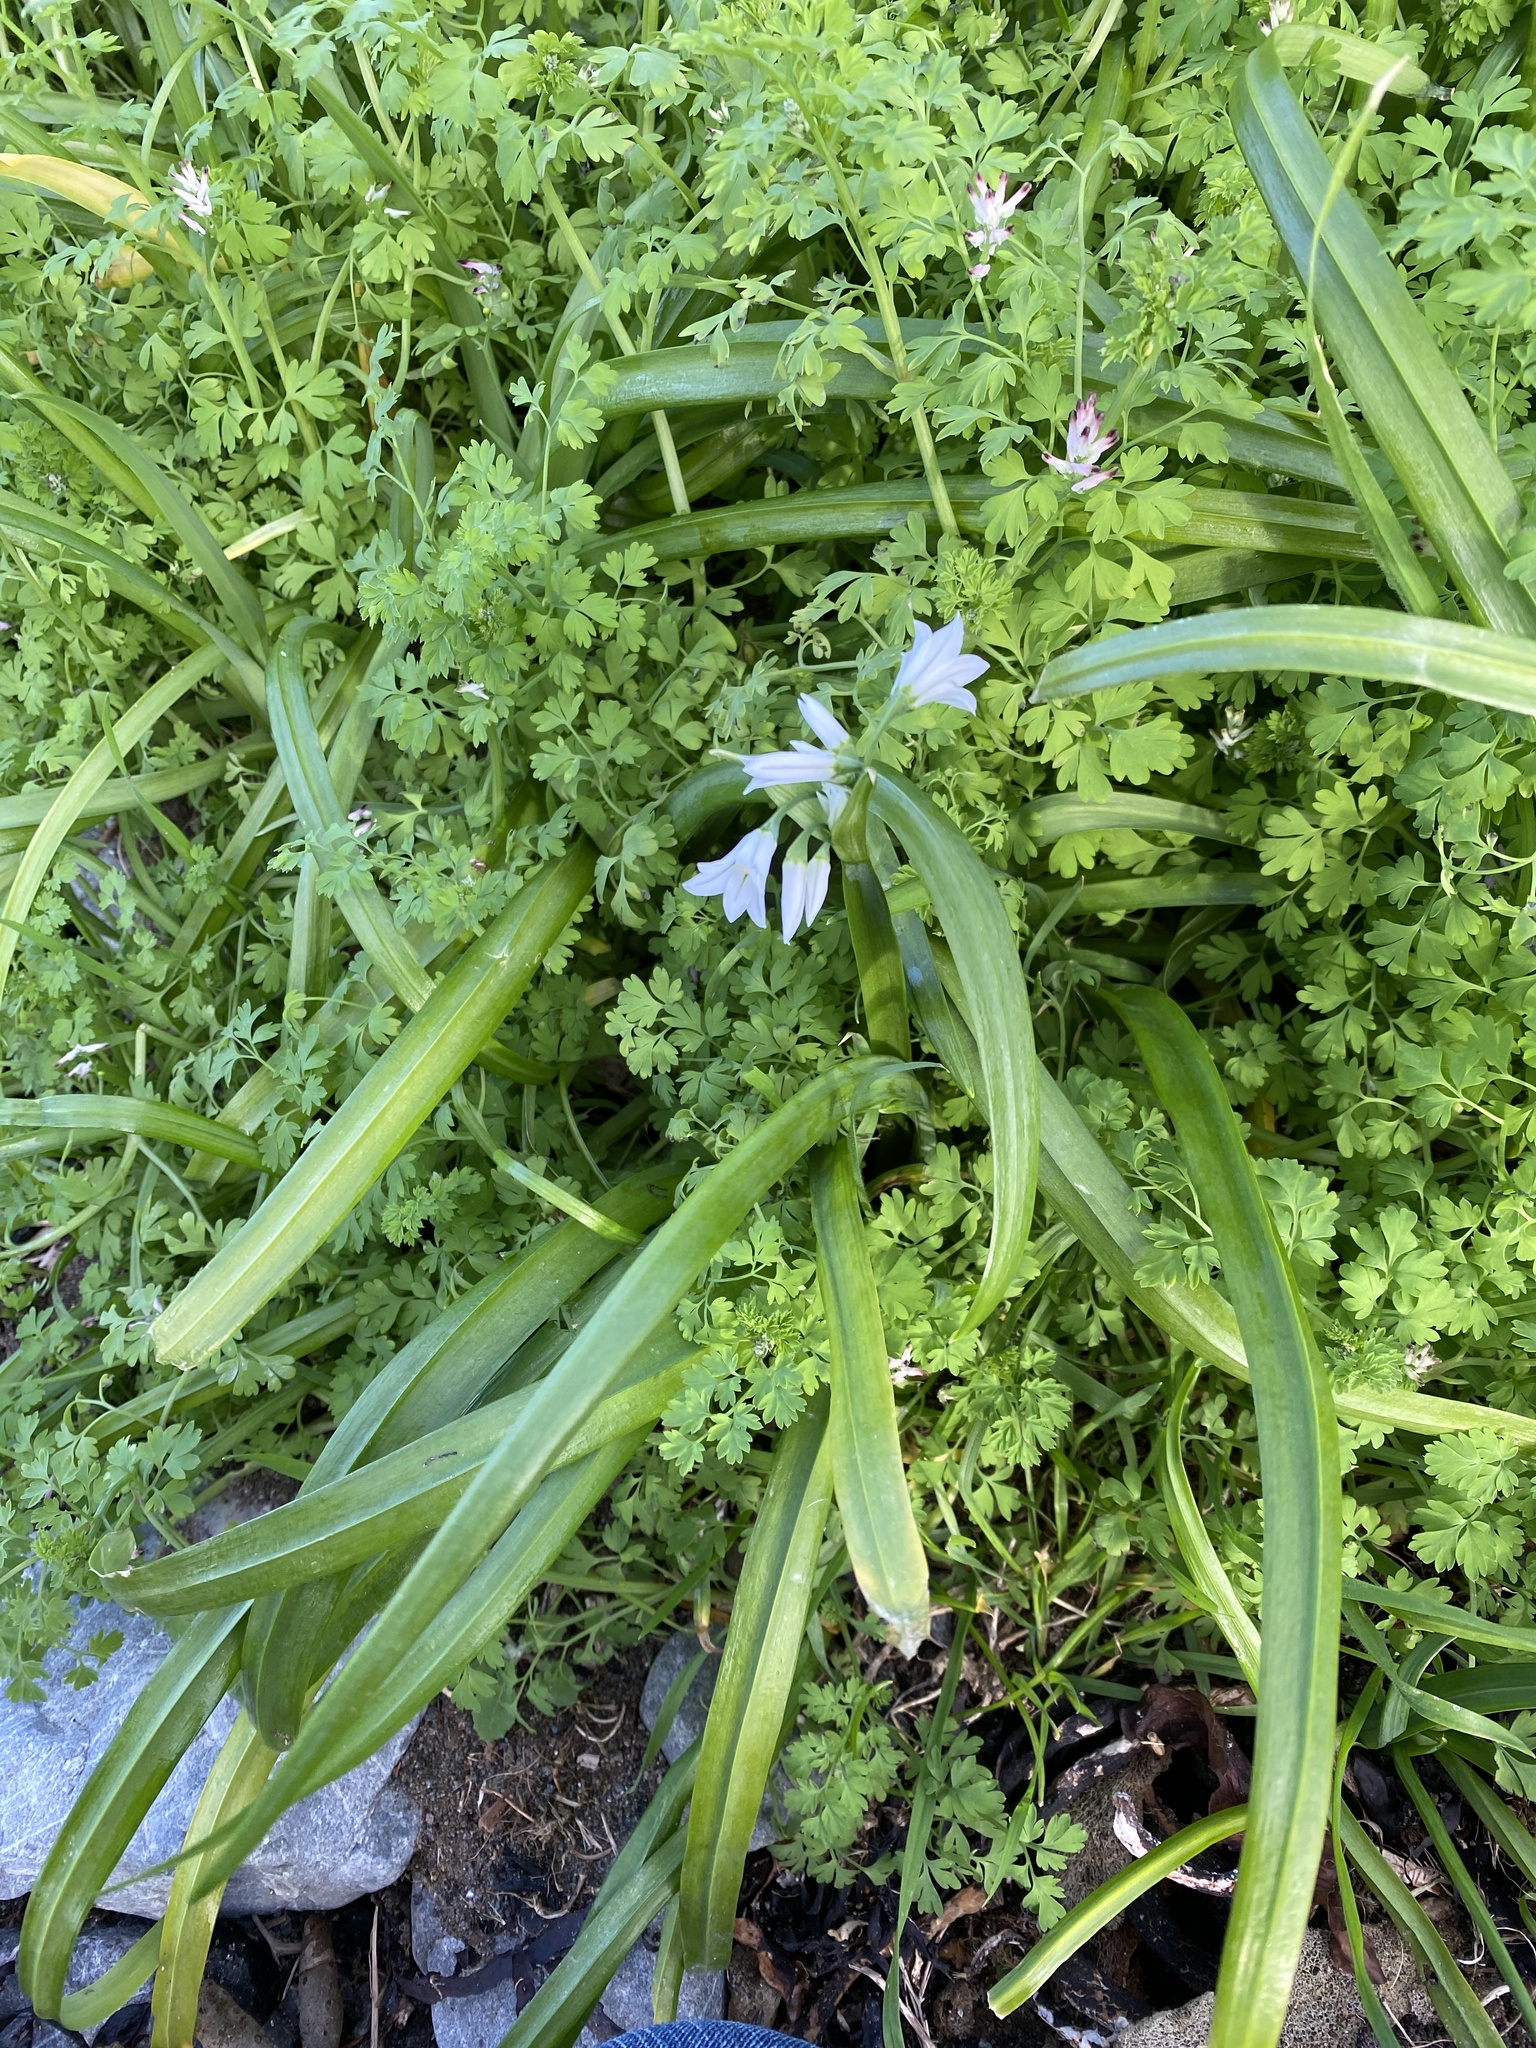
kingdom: Plantae
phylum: Tracheophyta
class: Liliopsida
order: Asparagales
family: Amaryllidaceae
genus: Allium
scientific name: Allium triquetrum
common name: Three-cornered garlic
